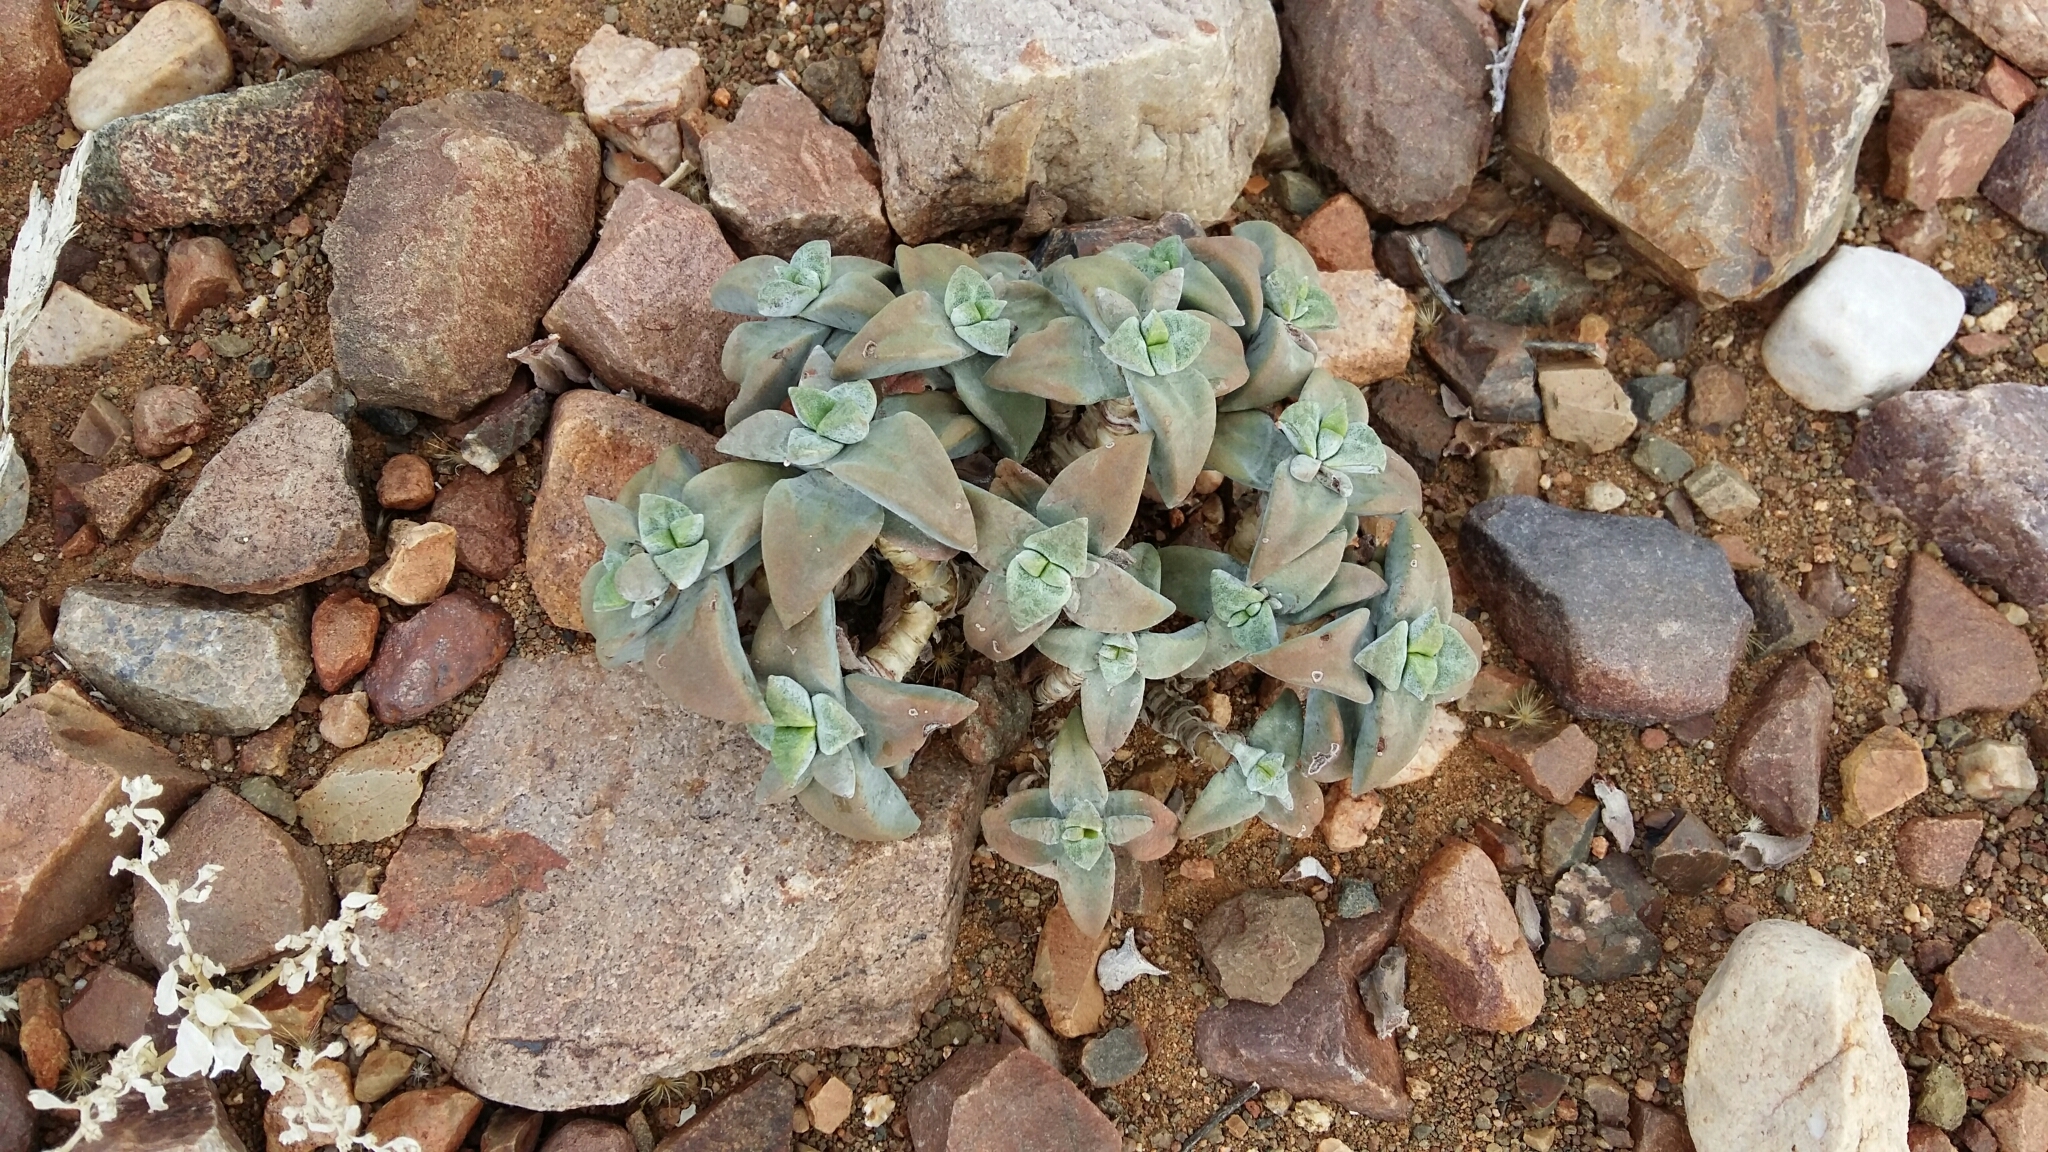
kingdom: Plantae
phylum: Tracheophyta
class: Magnoliopsida
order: Saxifragales
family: Crassulaceae
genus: Crassula
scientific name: Crassula deltoidea
